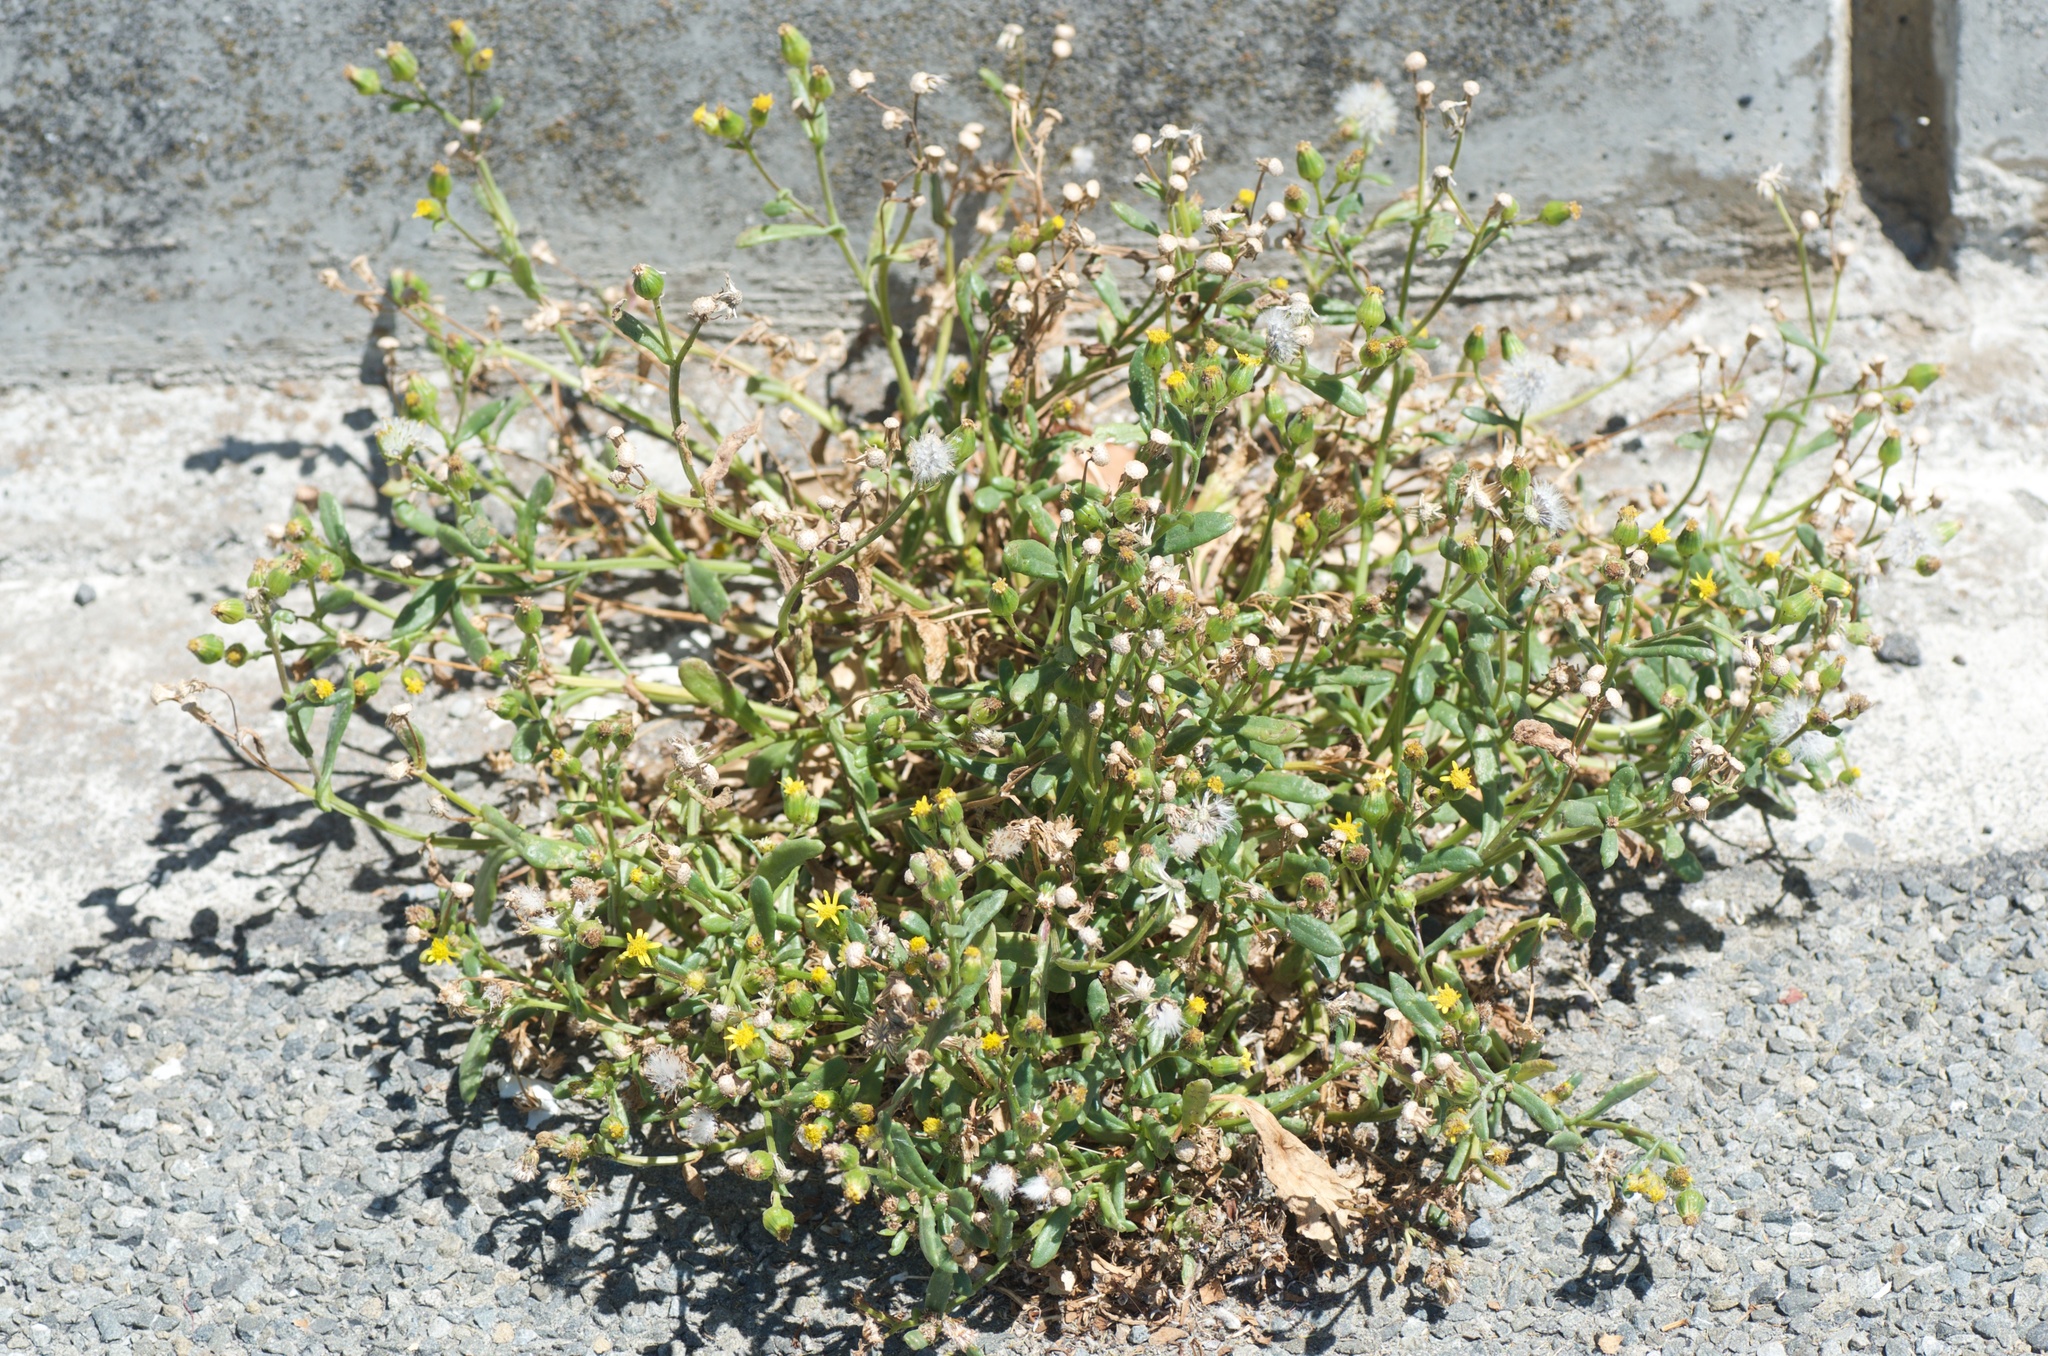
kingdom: Plantae
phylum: Tracheophyta
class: Magnoliopsida
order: Asterales
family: Asteraceae
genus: Senecio
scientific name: Senecio lautus
